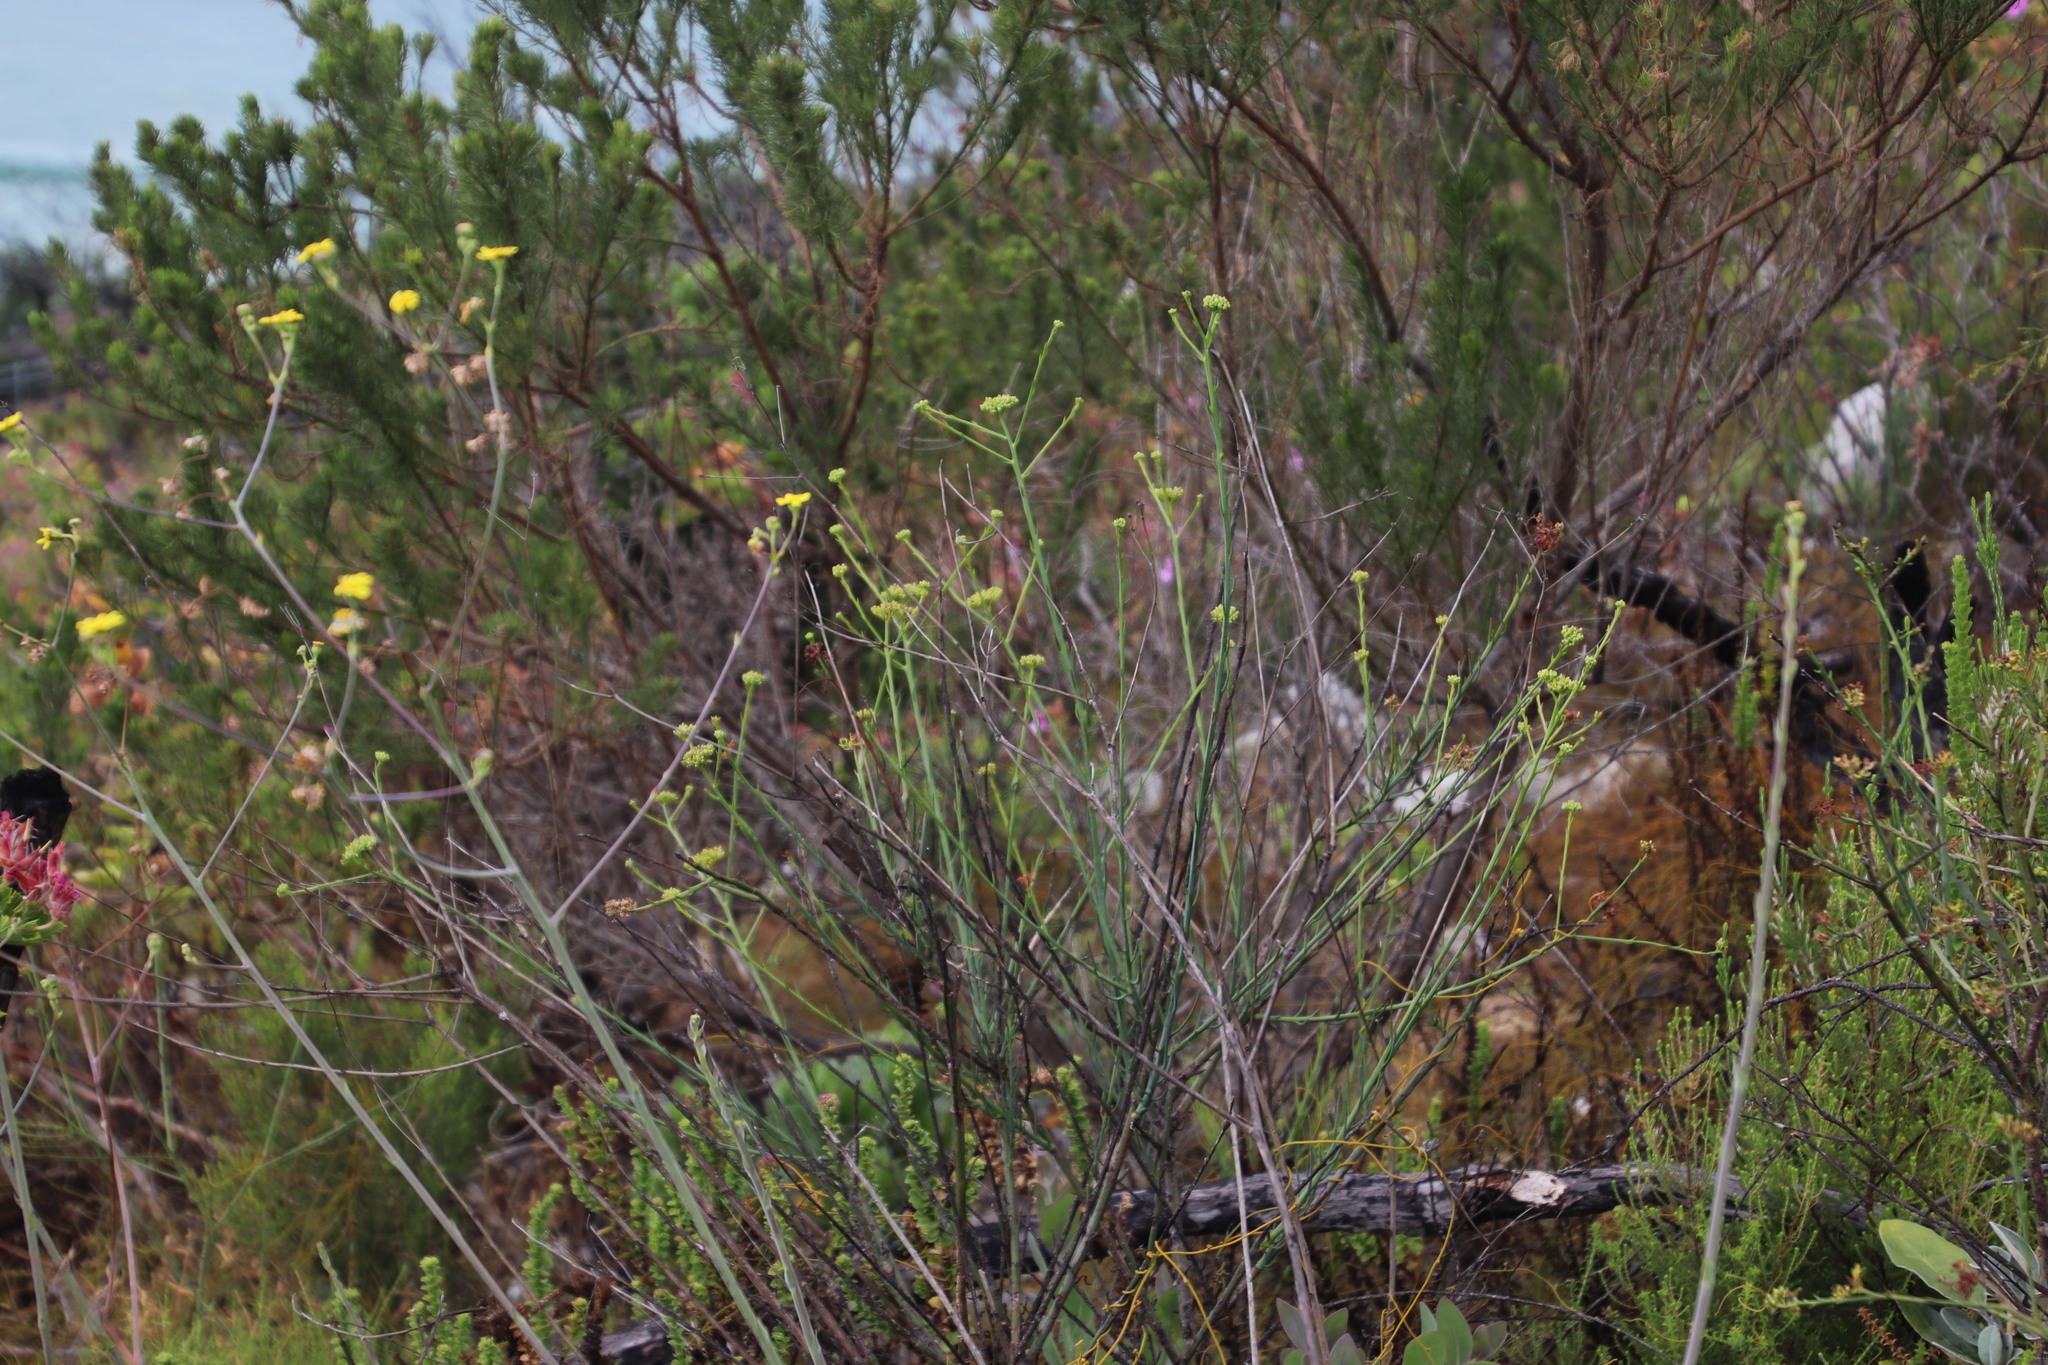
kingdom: Plantae
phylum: Tracheophyta
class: Magnoliopsida
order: Santalales
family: Thesiaceae
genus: Thesium
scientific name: Thesium strictum
